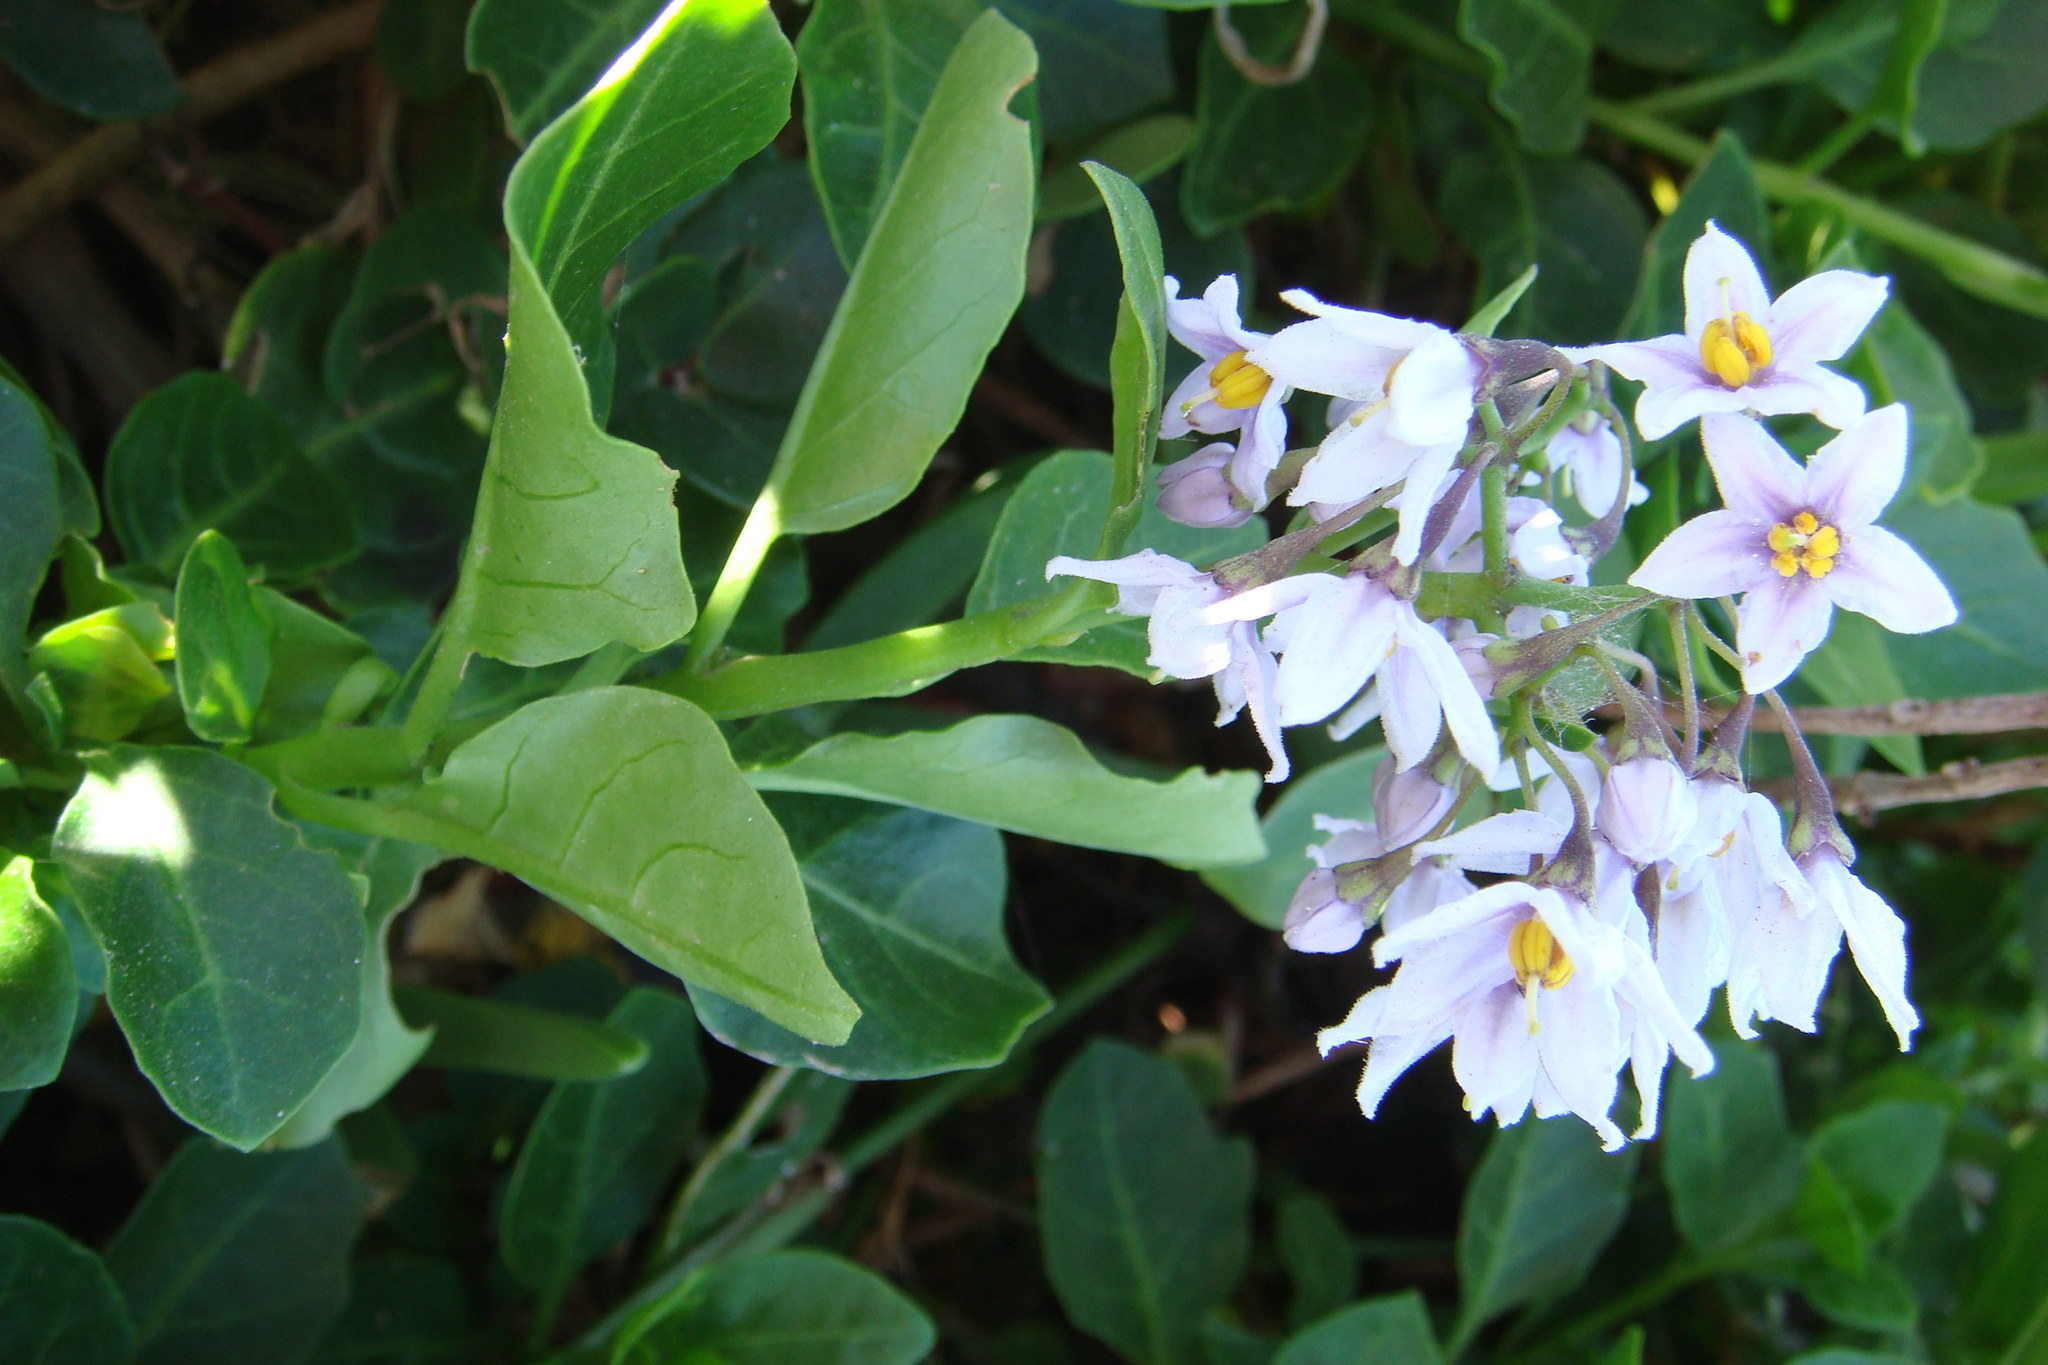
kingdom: Plantae
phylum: Tracheophyta
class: Magnoliopsida
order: Solanales
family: Solanaceae
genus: Solanum
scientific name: Solanum africanum
